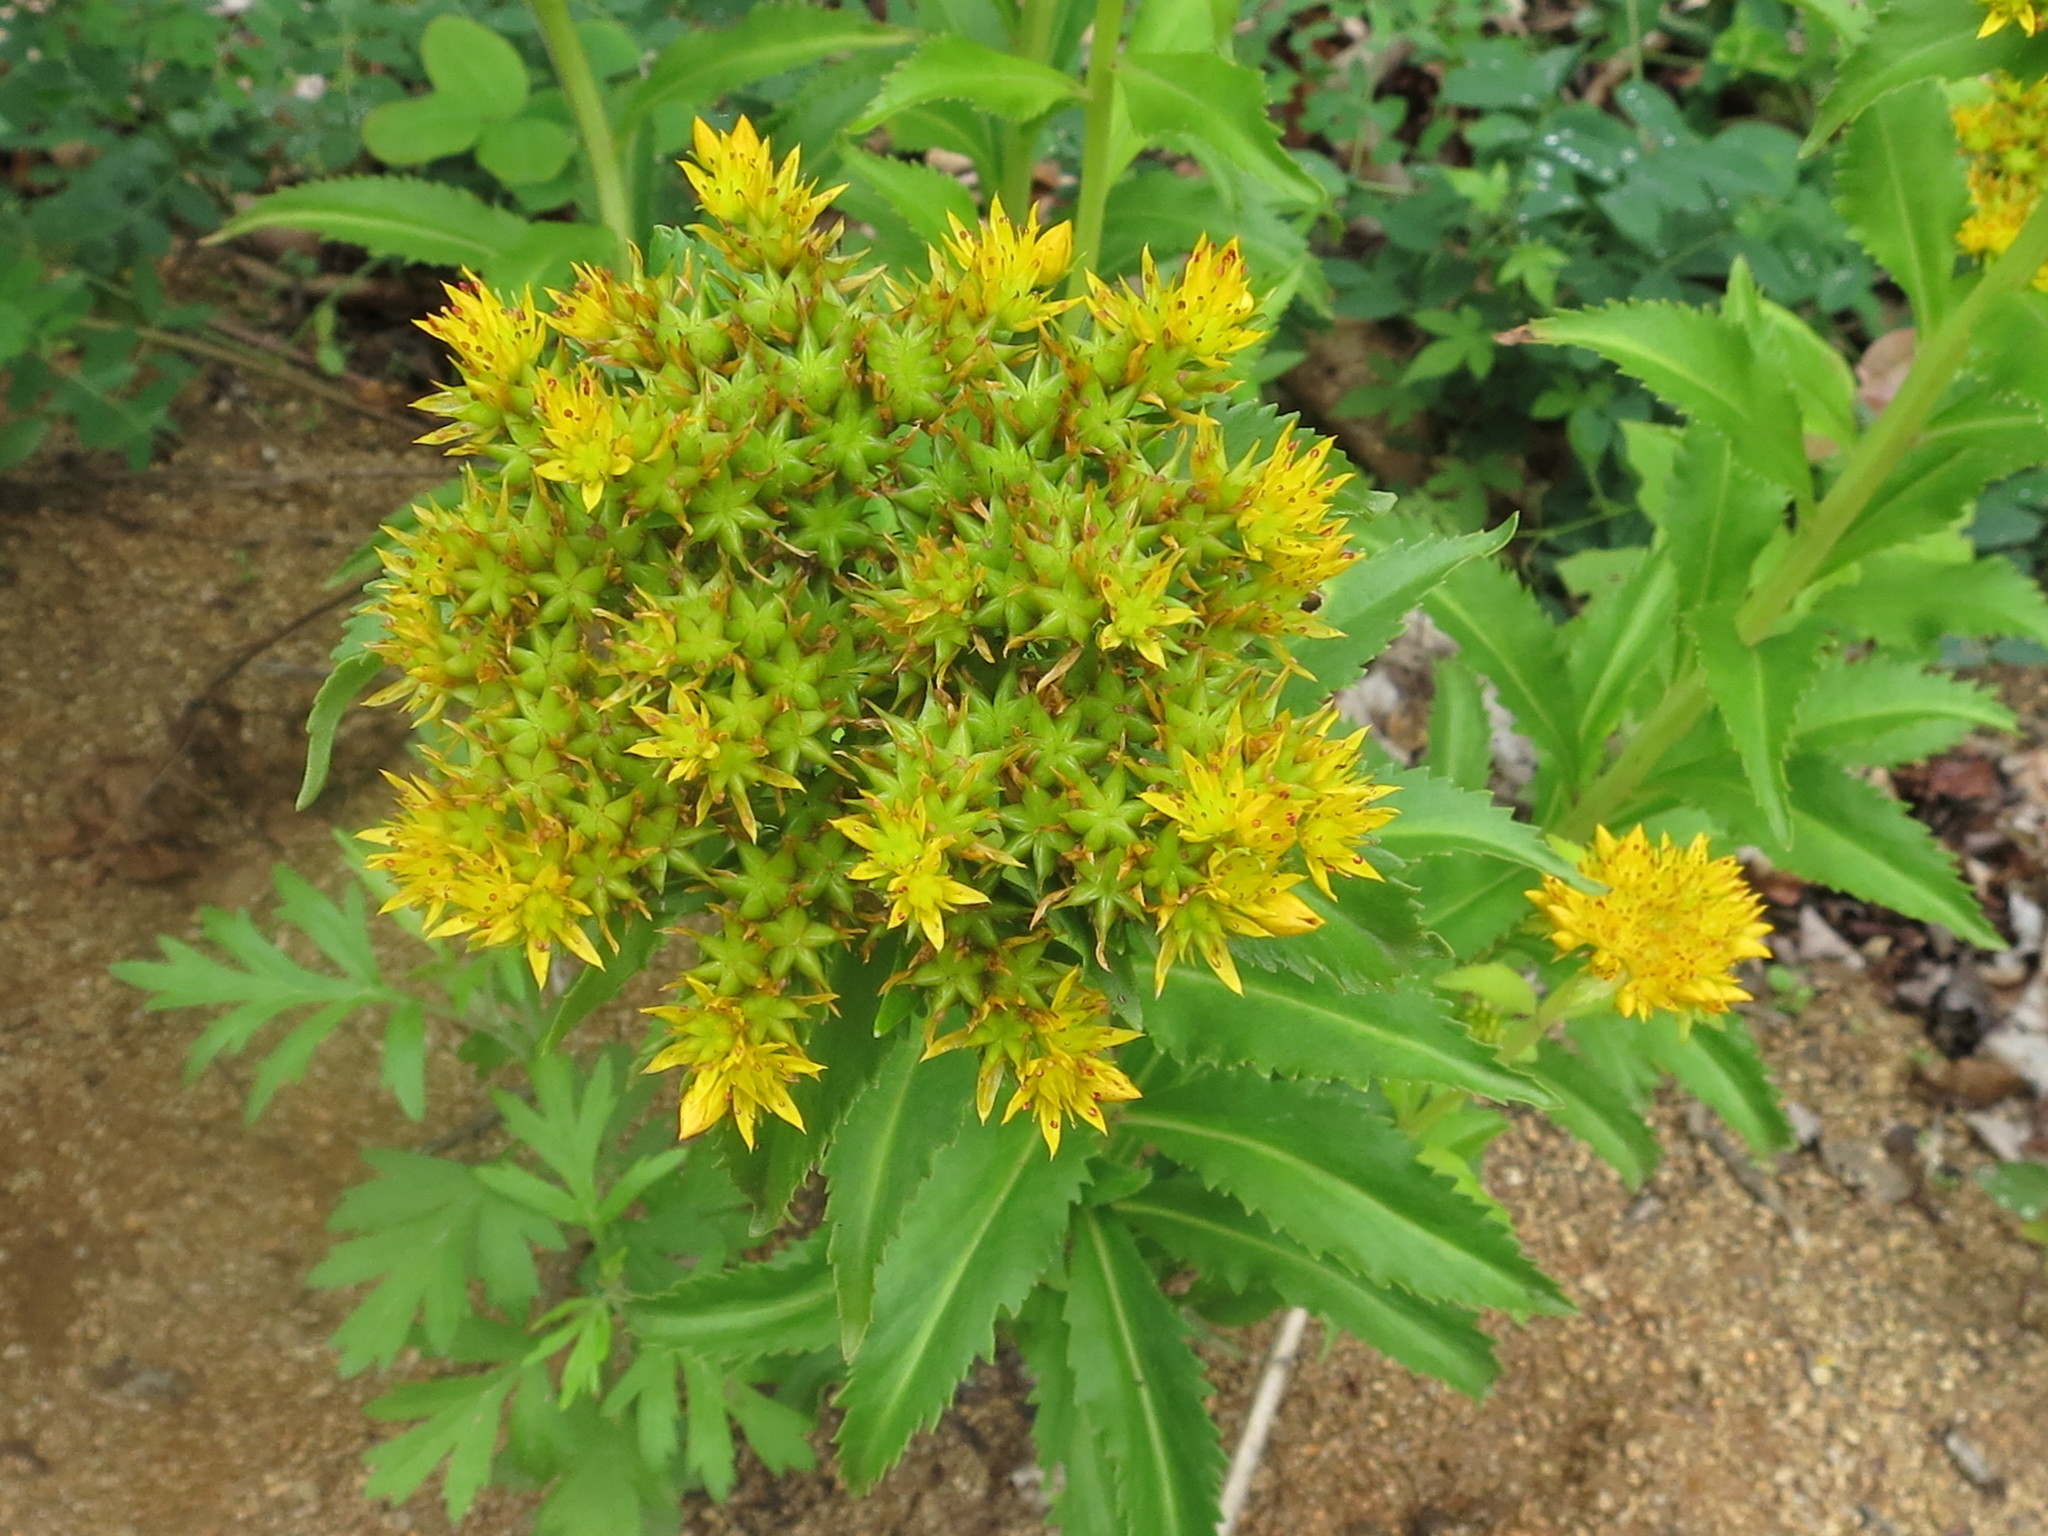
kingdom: Plantae
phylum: Tracheophyta
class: Magnoliopsida
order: Saxifragales
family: Crassulaceae
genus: Phedimus
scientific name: Phedimus aizoon
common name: Orpin aizoon
